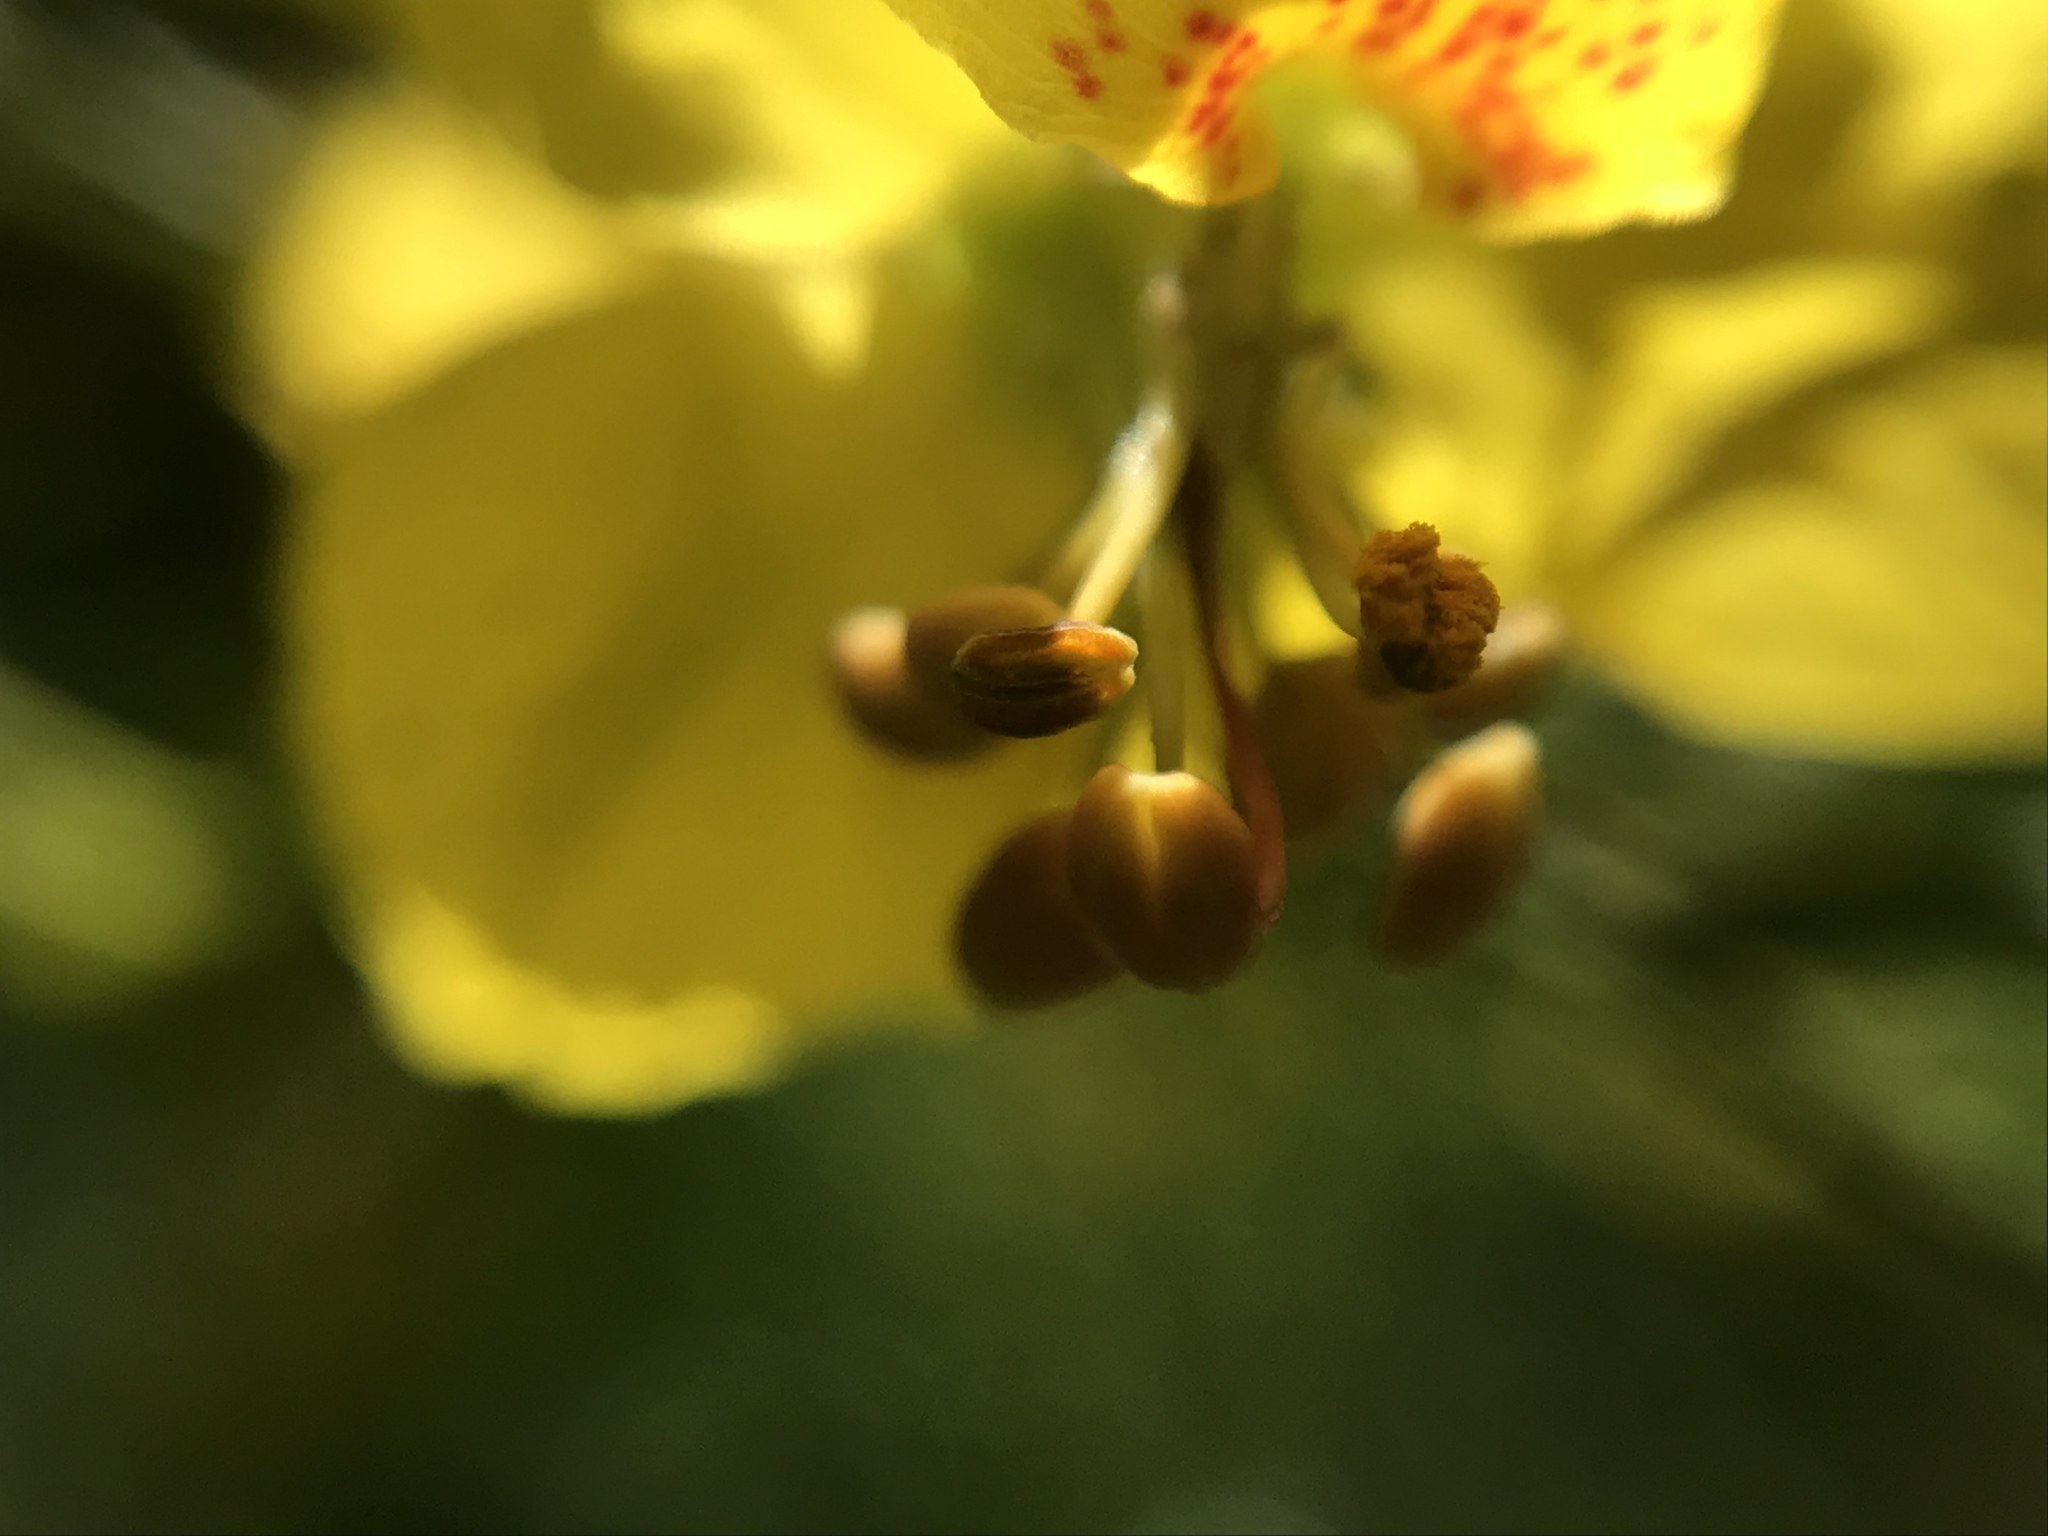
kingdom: Plantae
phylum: Tracheophyta
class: Magnoliopsida
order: Fabales
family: Fabaceae
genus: Parkinsonia
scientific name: Parkinsonia aculeata
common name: Jerusalem thorn
